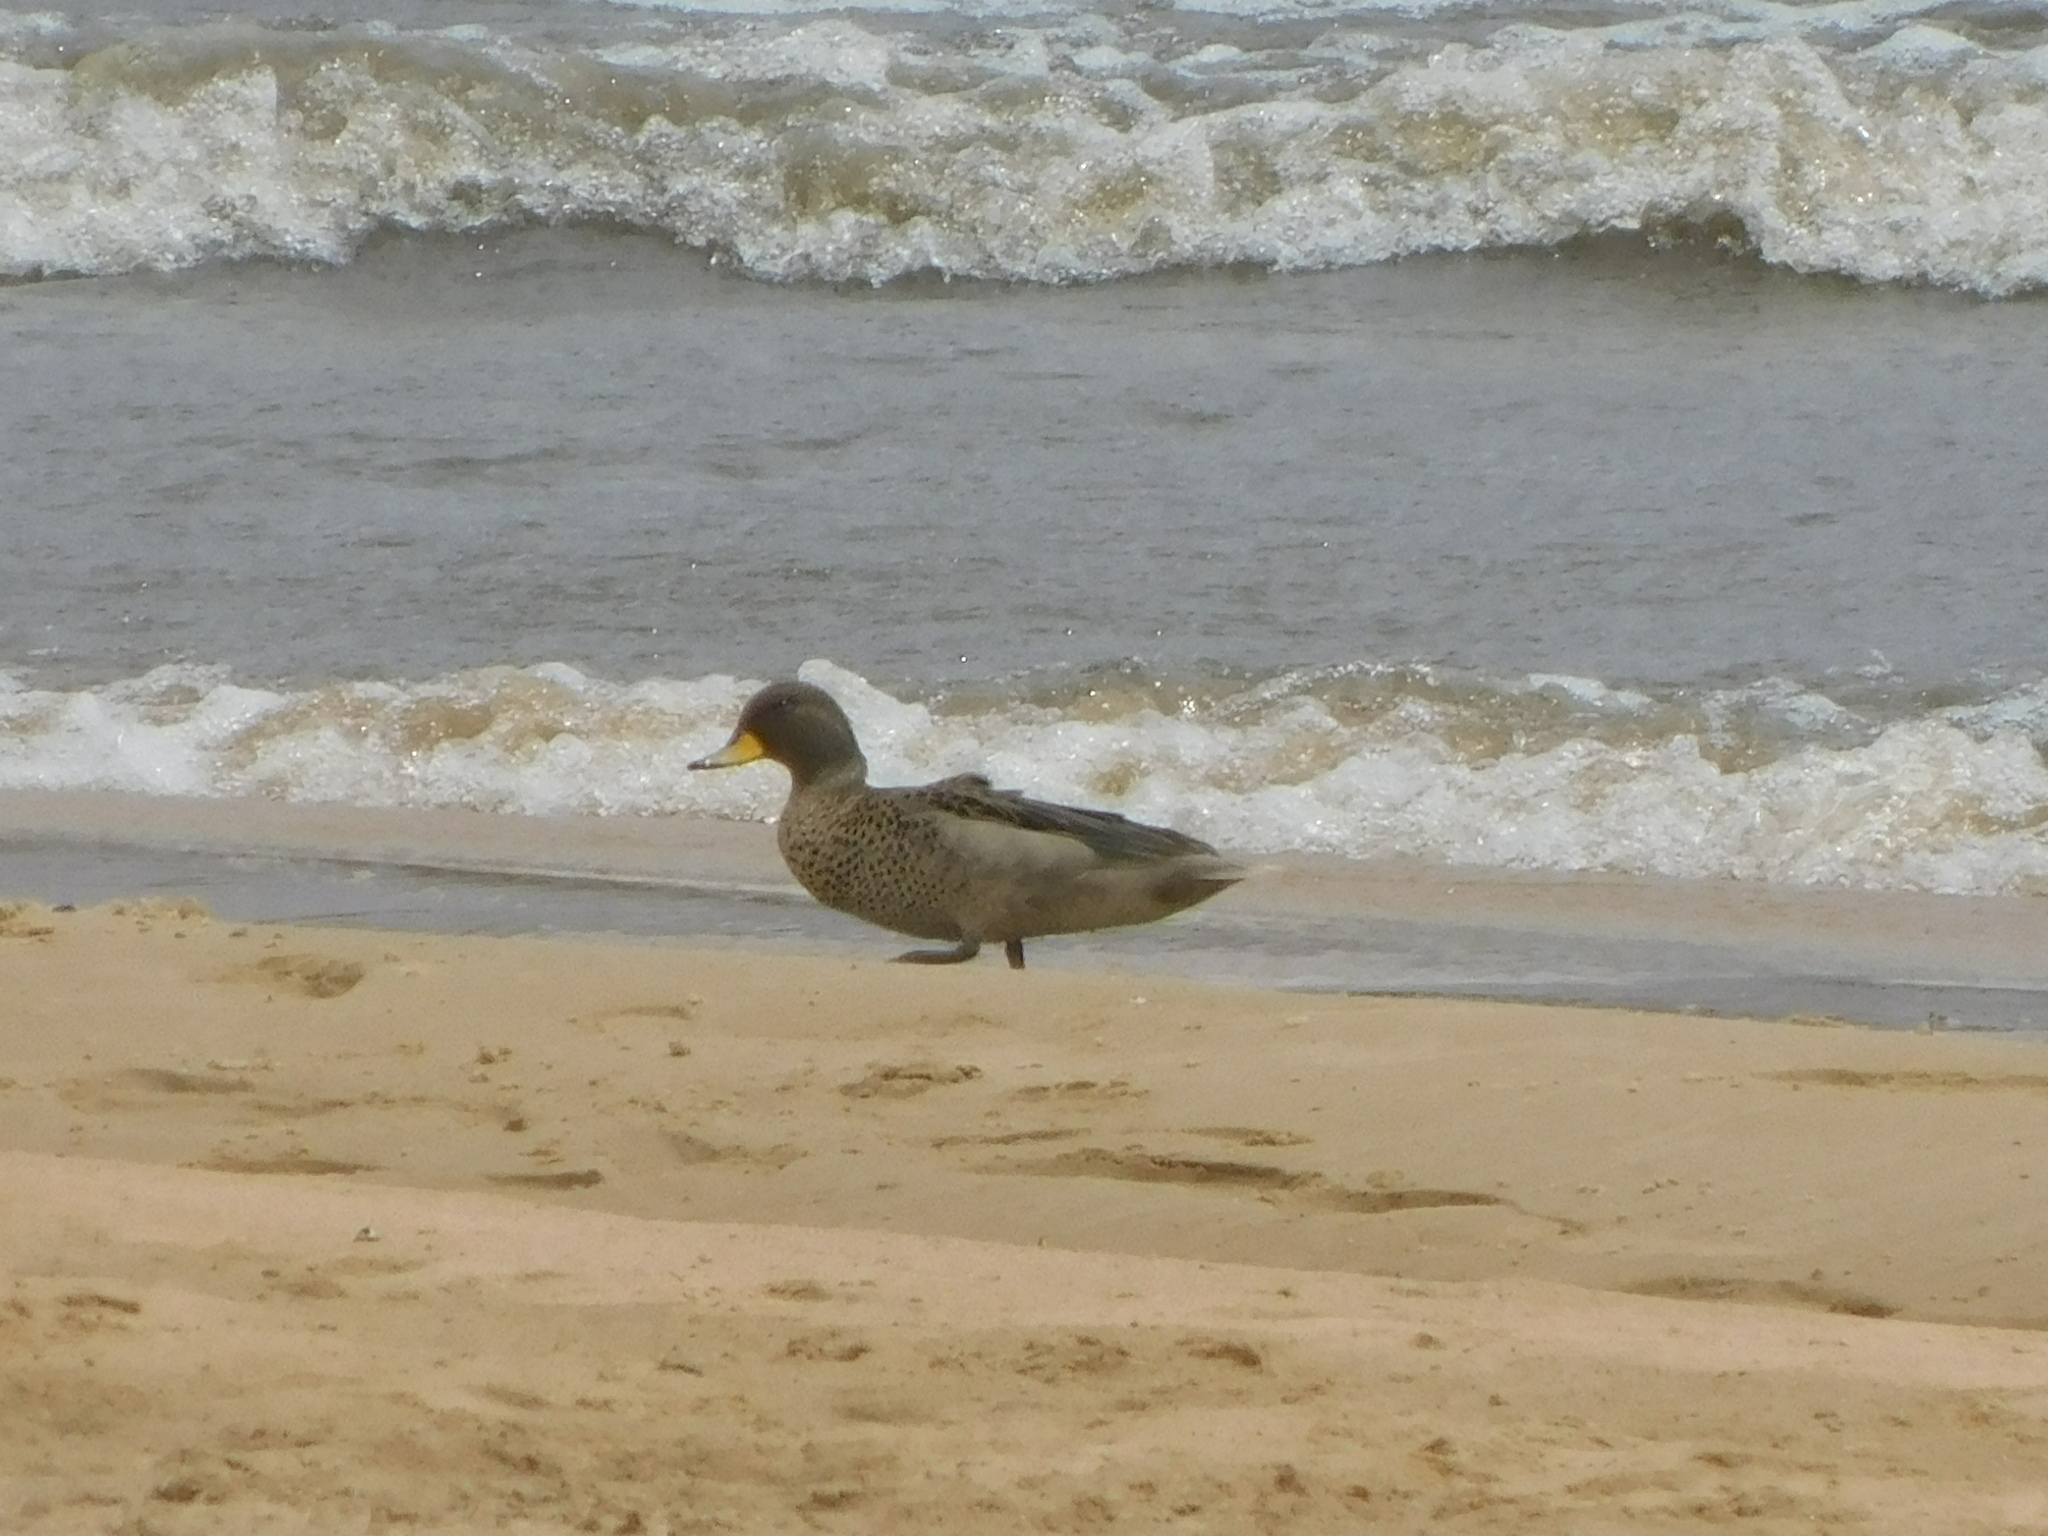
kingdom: Animalia
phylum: Chordata
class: Aves
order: Anseriformes
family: Anatidae
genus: Anas
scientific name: Anas flavirostris
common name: Yellow-billed teal
